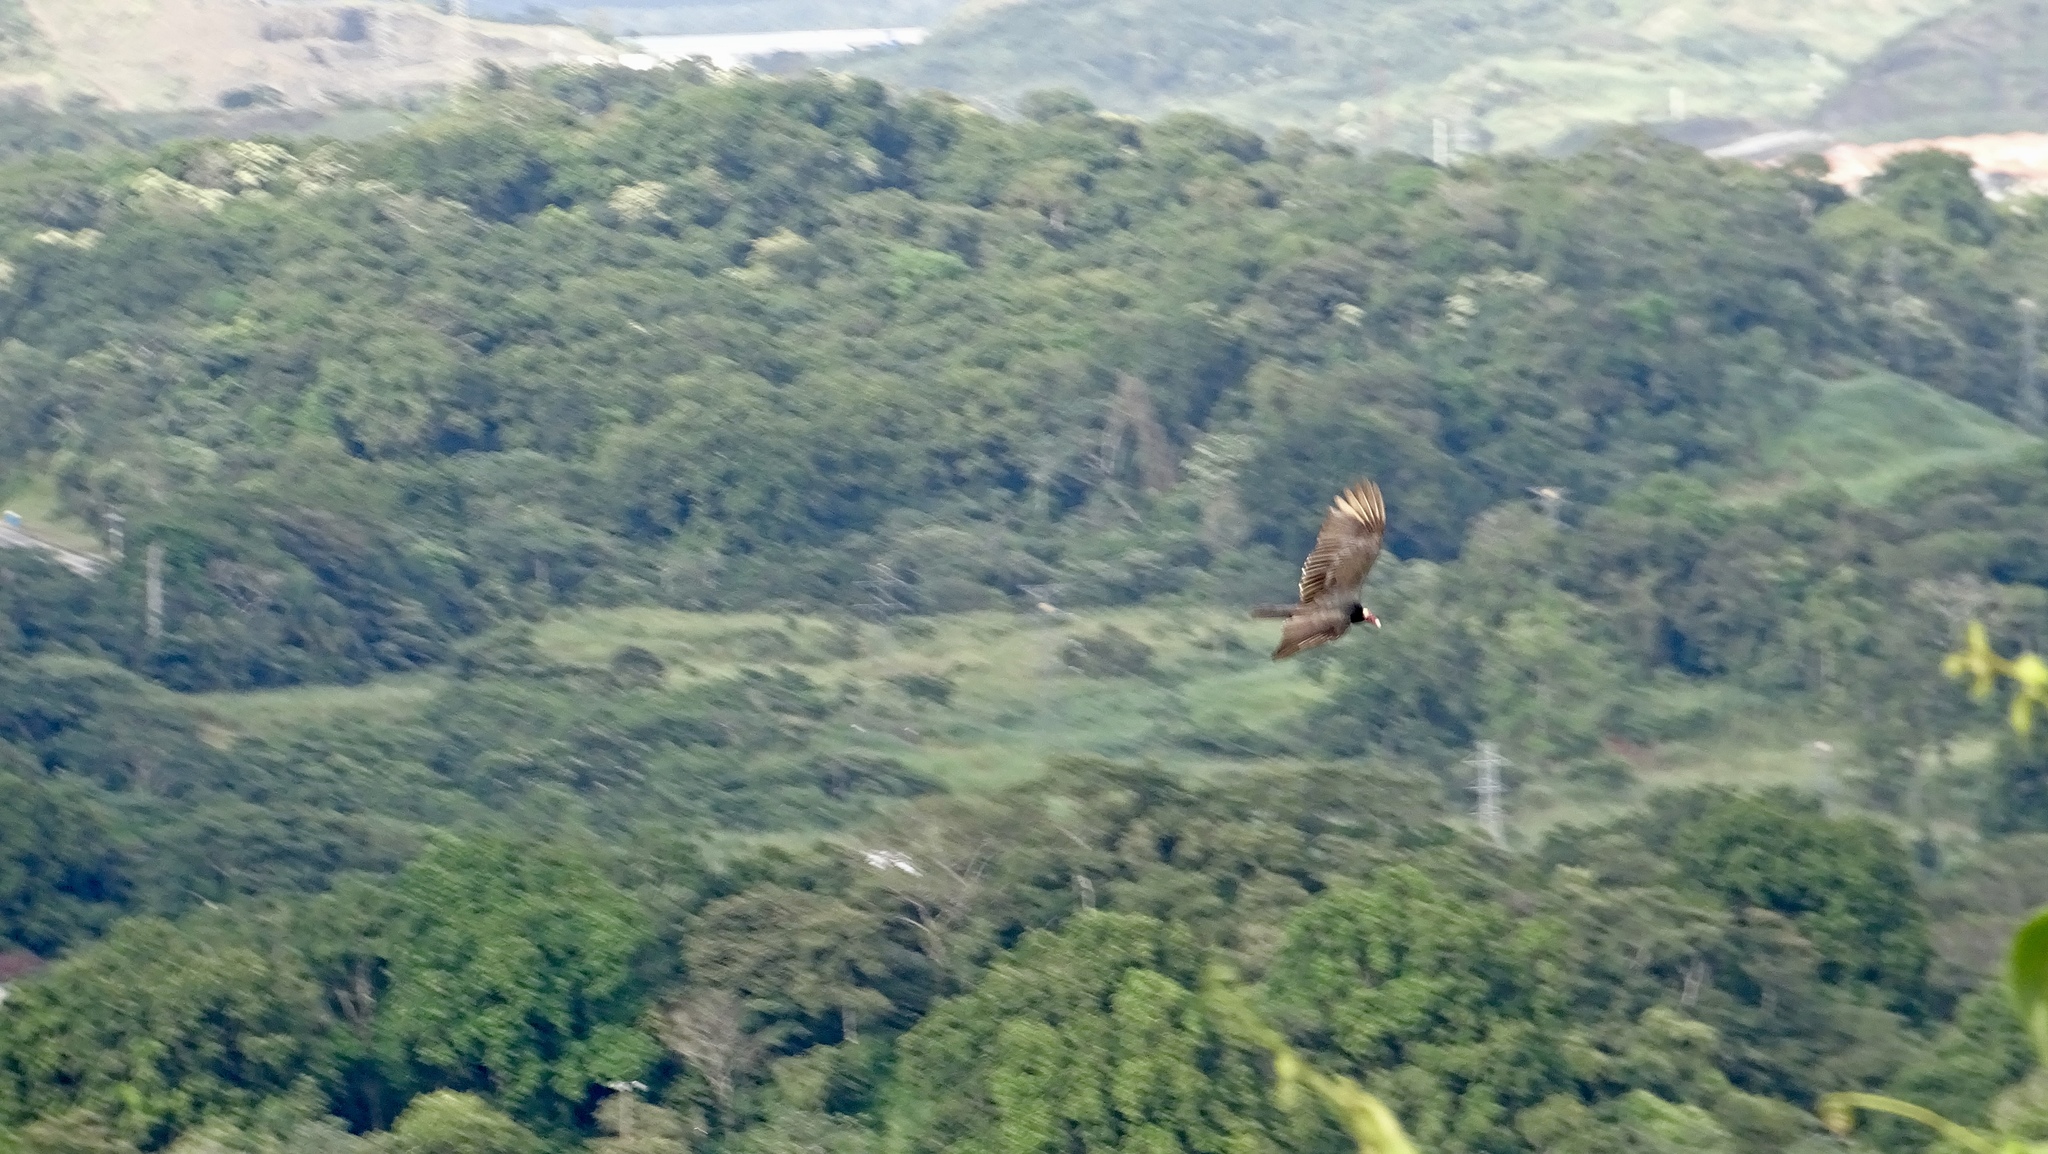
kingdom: Animalia
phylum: Chordata
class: Aves
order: Accipitriformes
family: Cathartidae
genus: Cathartes
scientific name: Cathartes aura
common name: Turkey vulture
